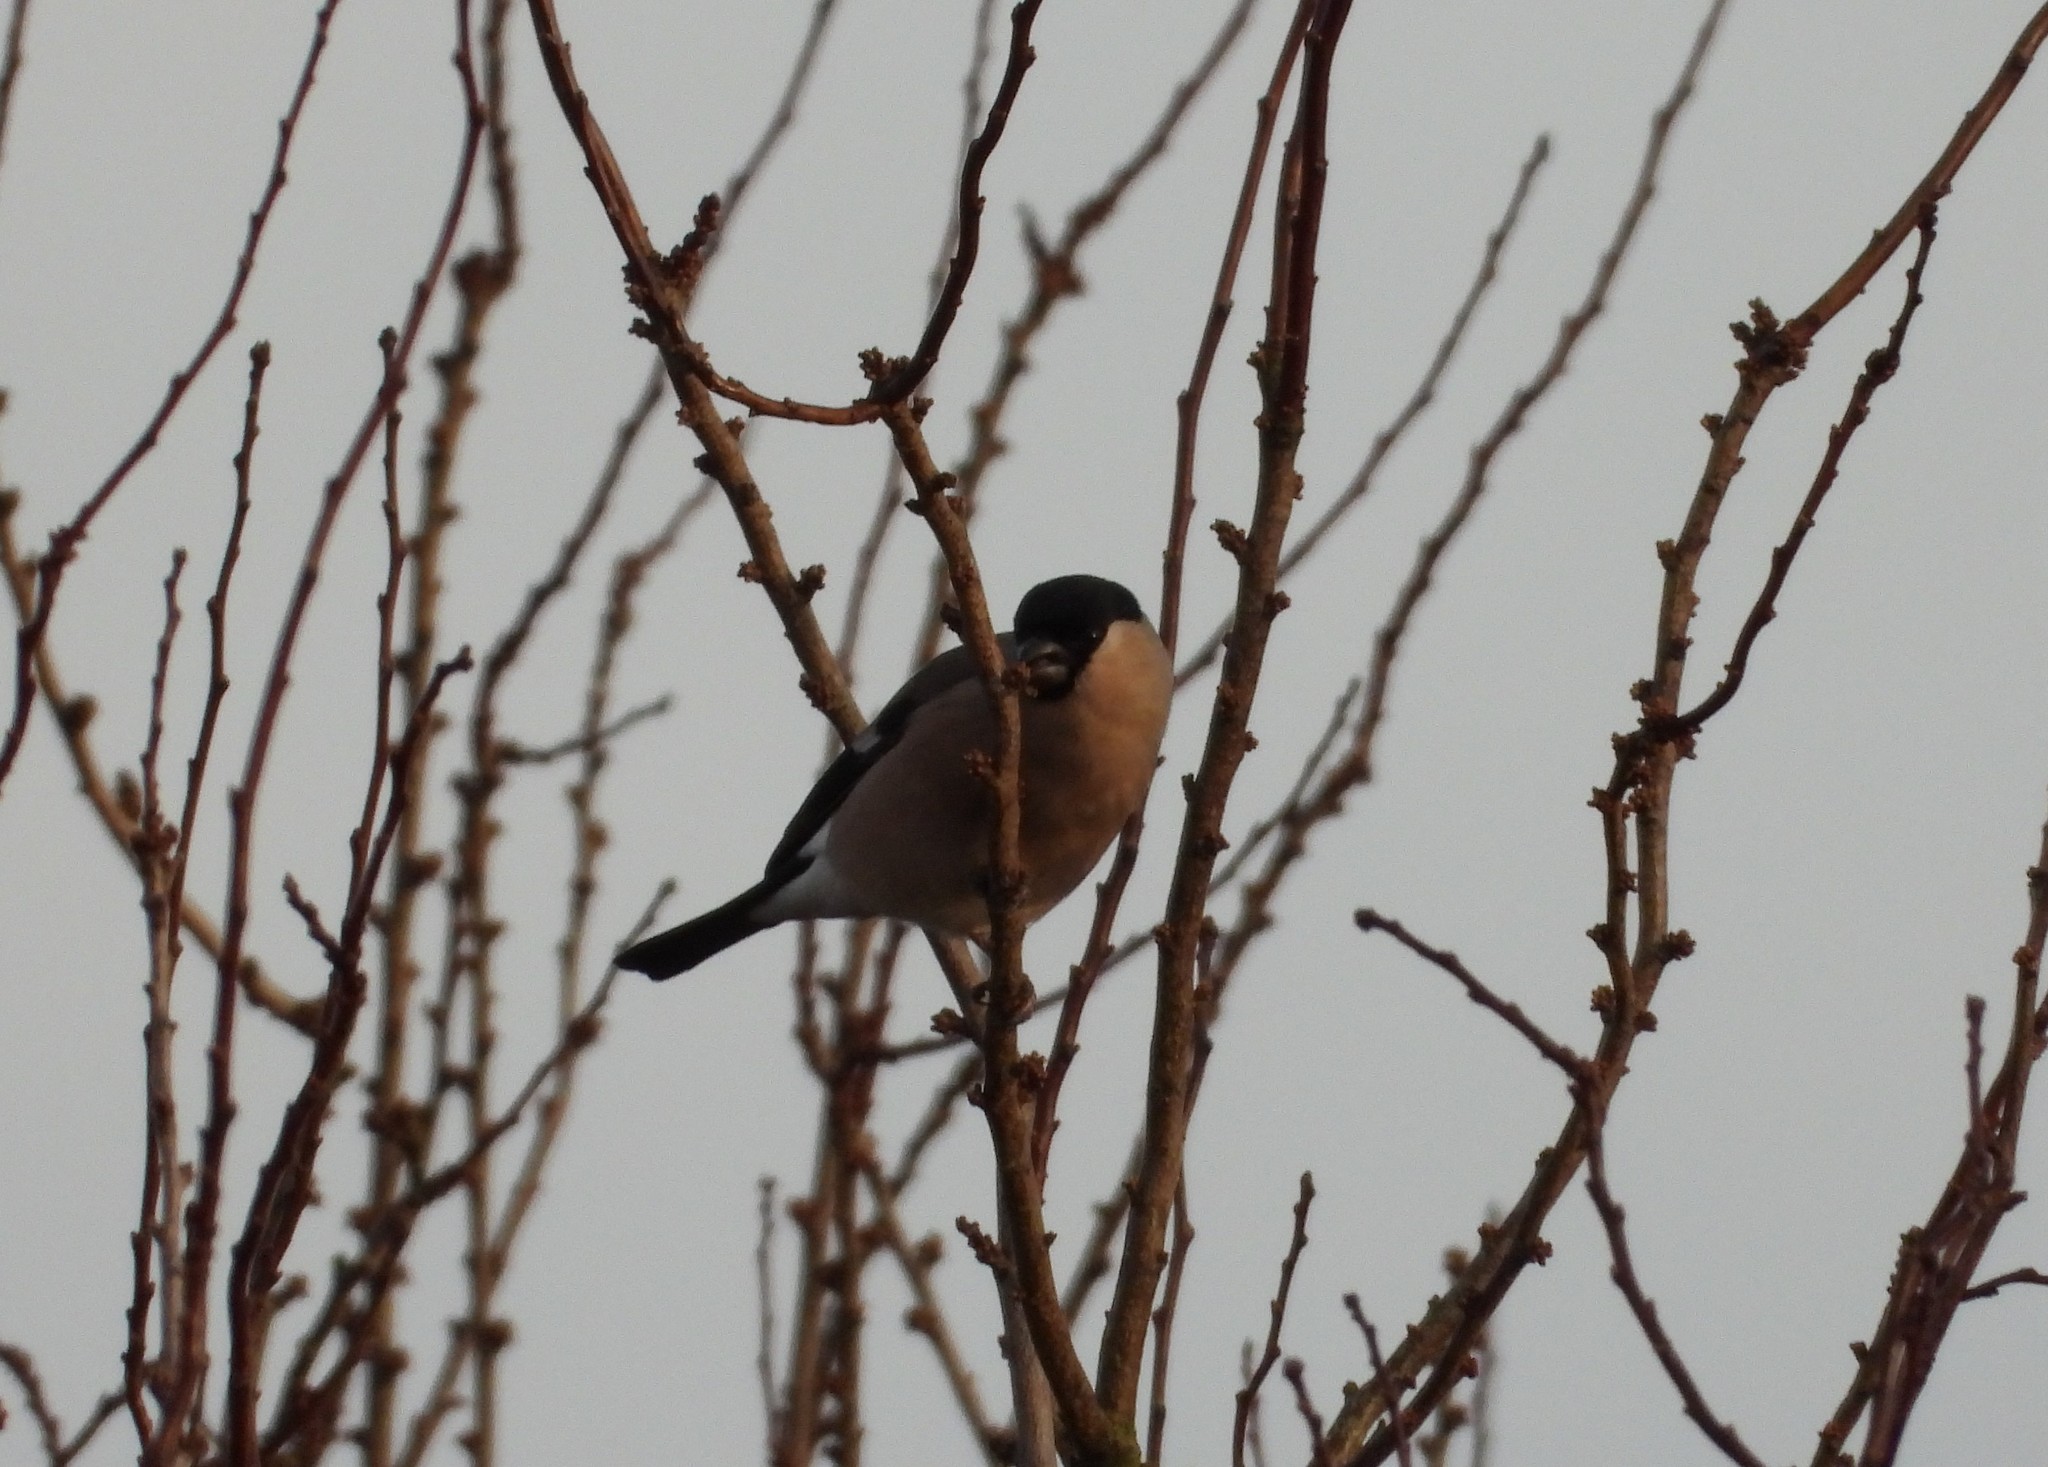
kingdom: Animalia
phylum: Chordata
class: Aves
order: Passeriformes
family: Fringillidae
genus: Pyrrhula
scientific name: Pyrrhula pyrrhula
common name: Eurasian bullfinch
